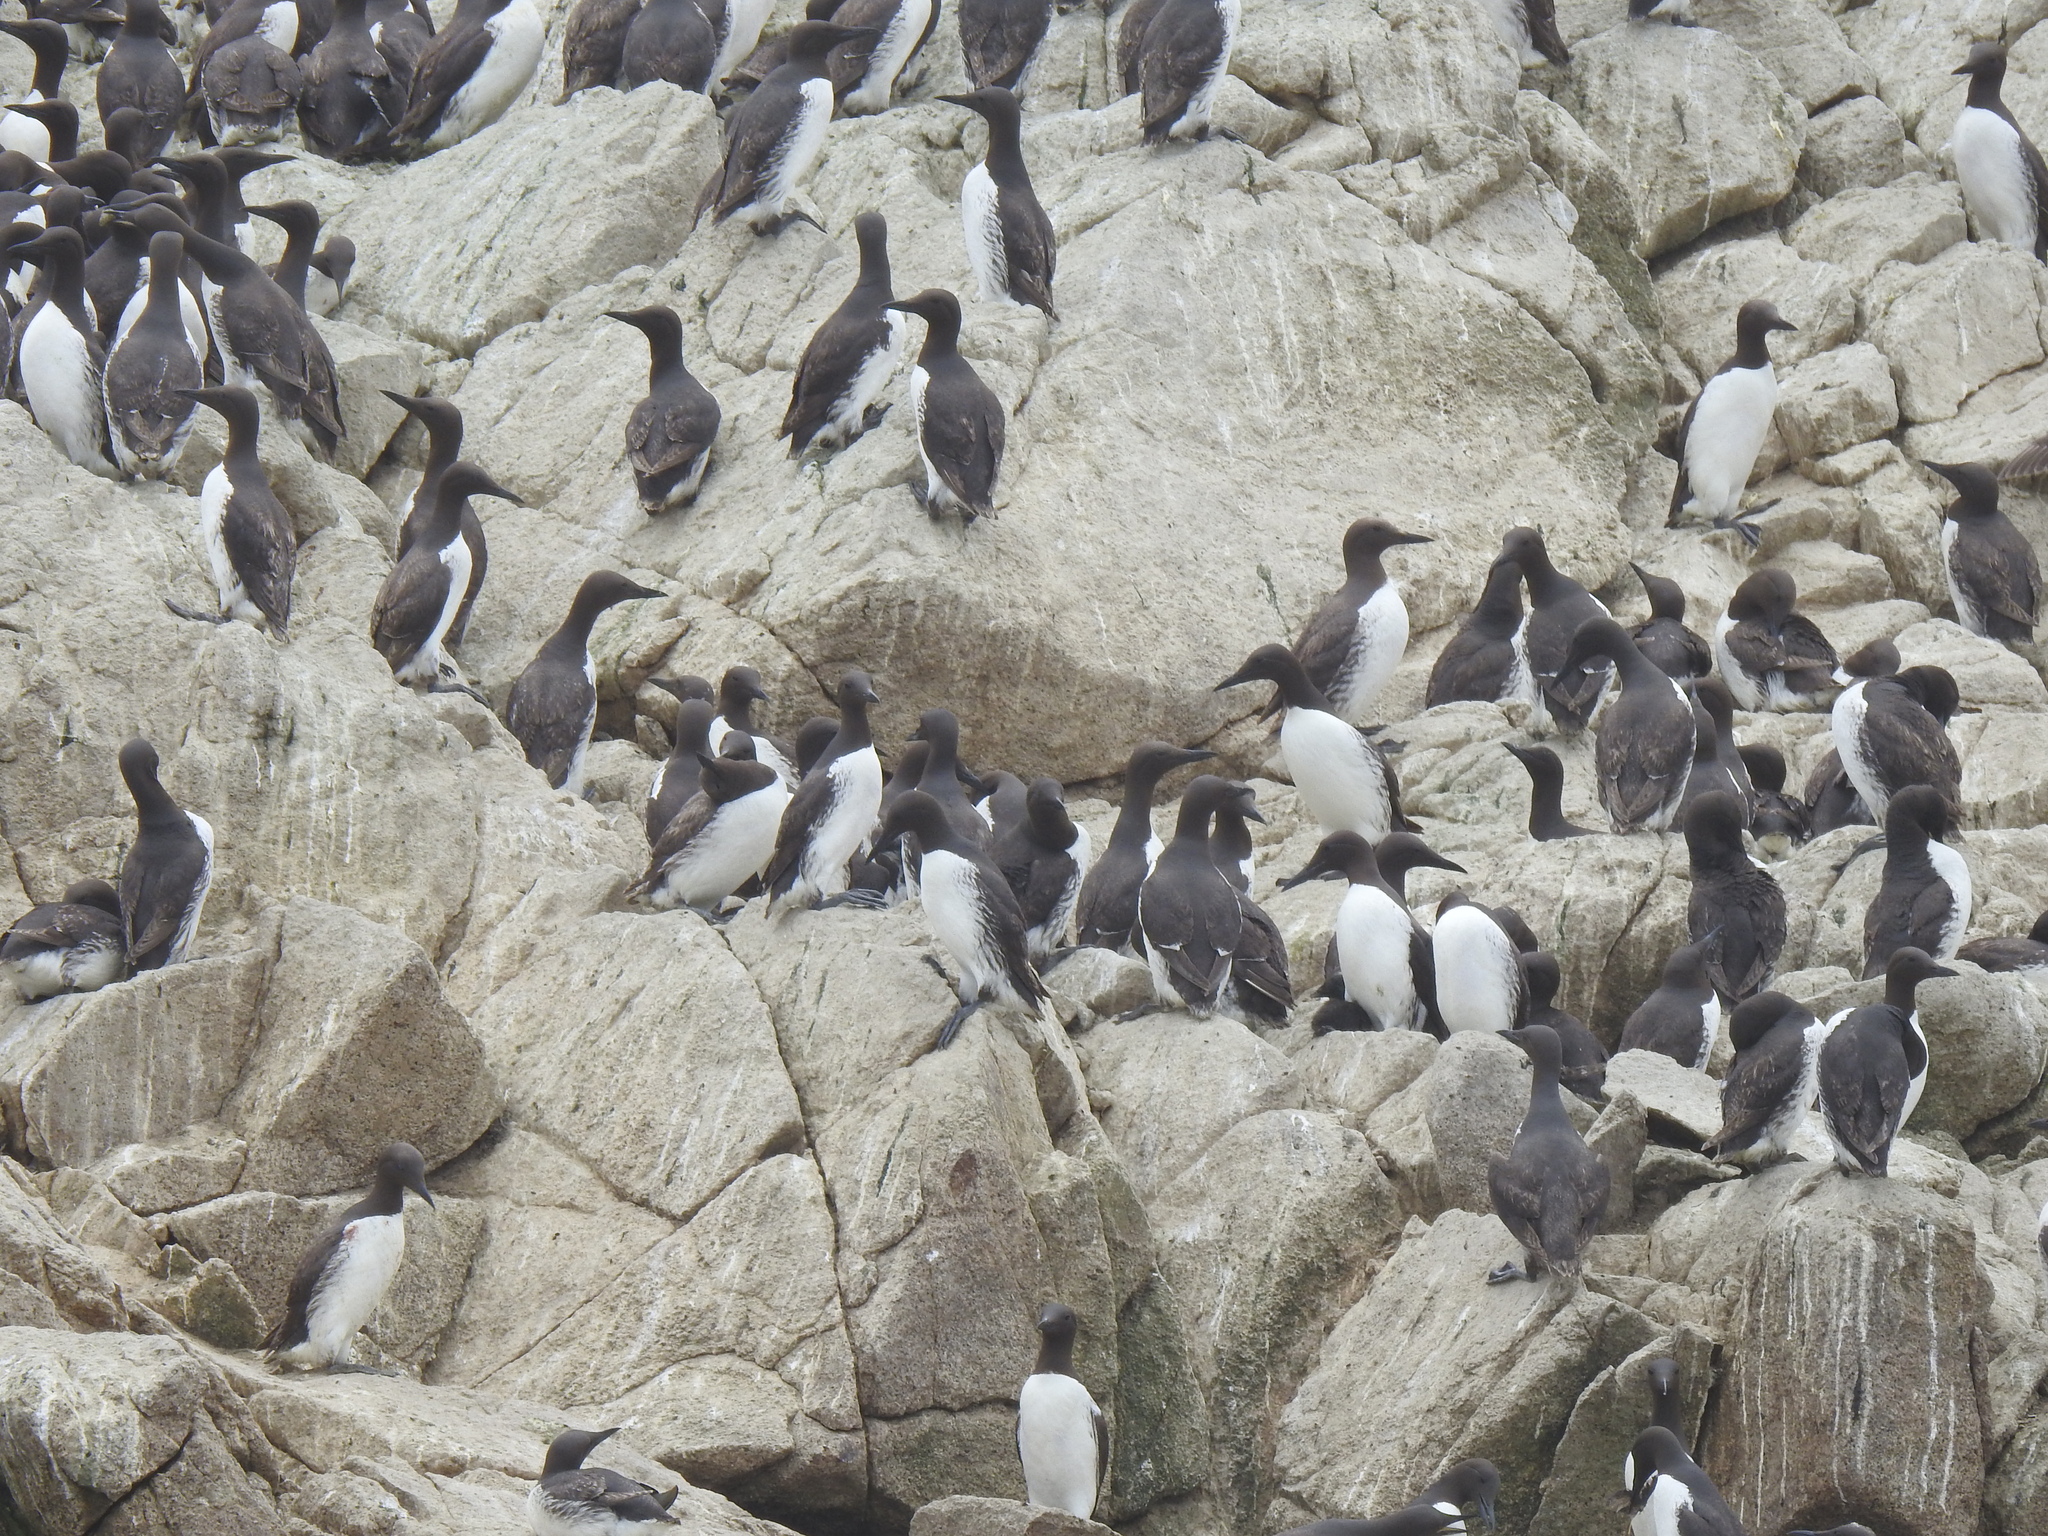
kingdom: Animalia
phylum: Chordata
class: Aves
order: Charadriiformes
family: Alcidae
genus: Uria
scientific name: Uria aalge
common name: Common murre
